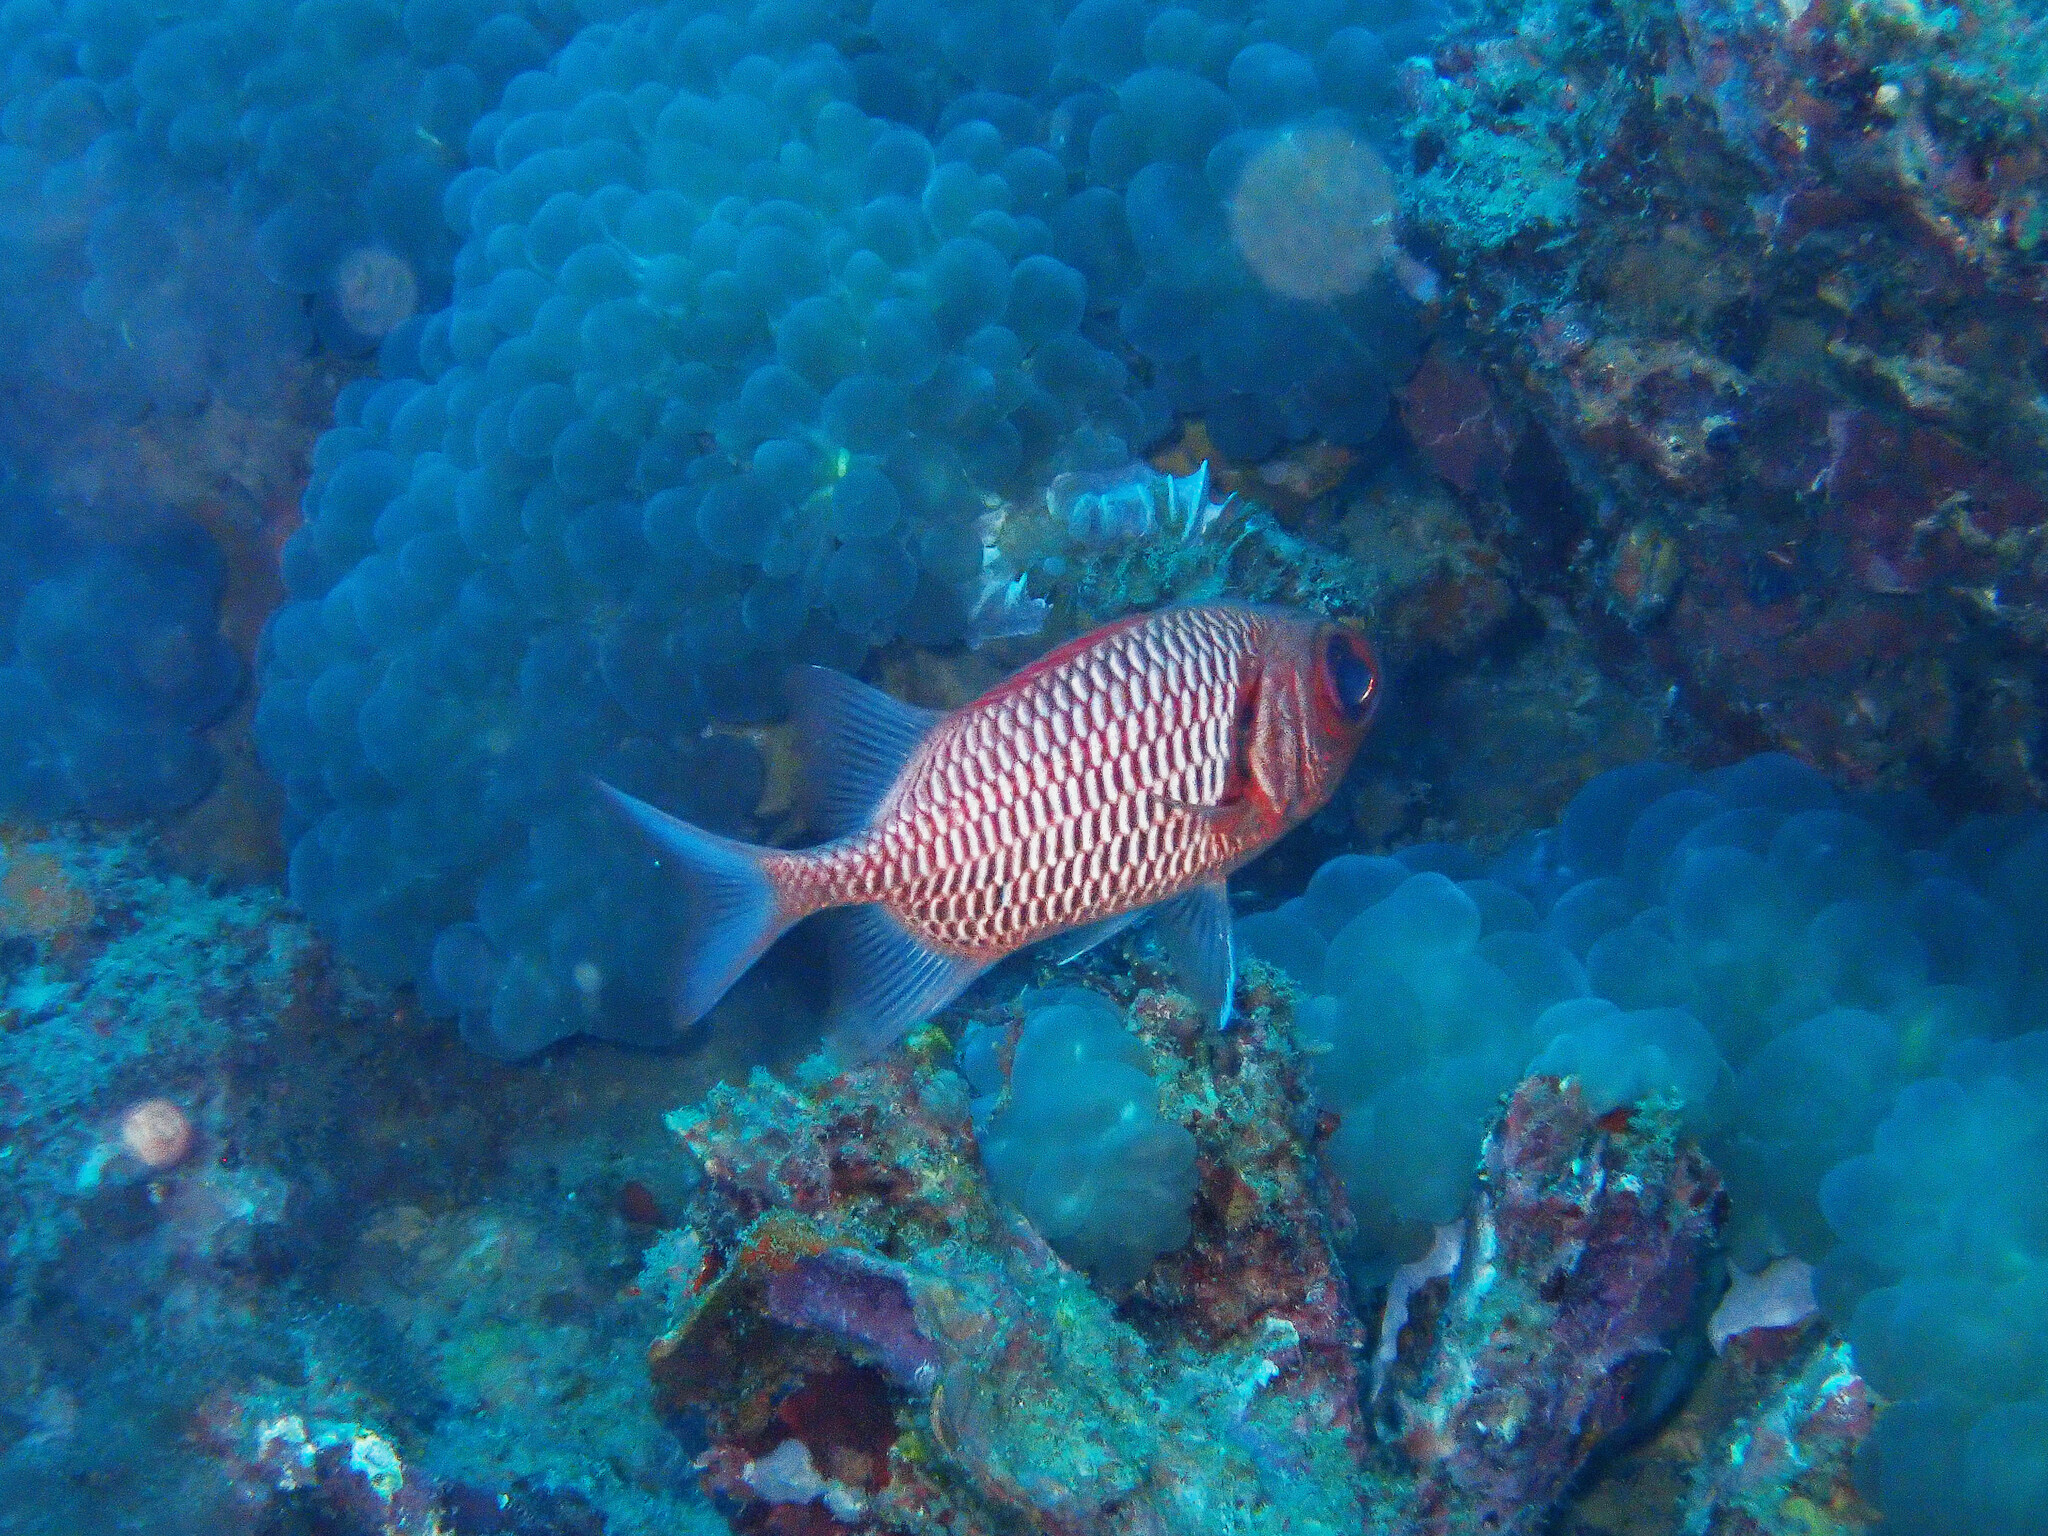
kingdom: Animalia
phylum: Chordata
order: Beryciformes
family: Holocentridae
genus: Myripristis
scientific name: Myripristis hexagona
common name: Blacktip soldierfish
